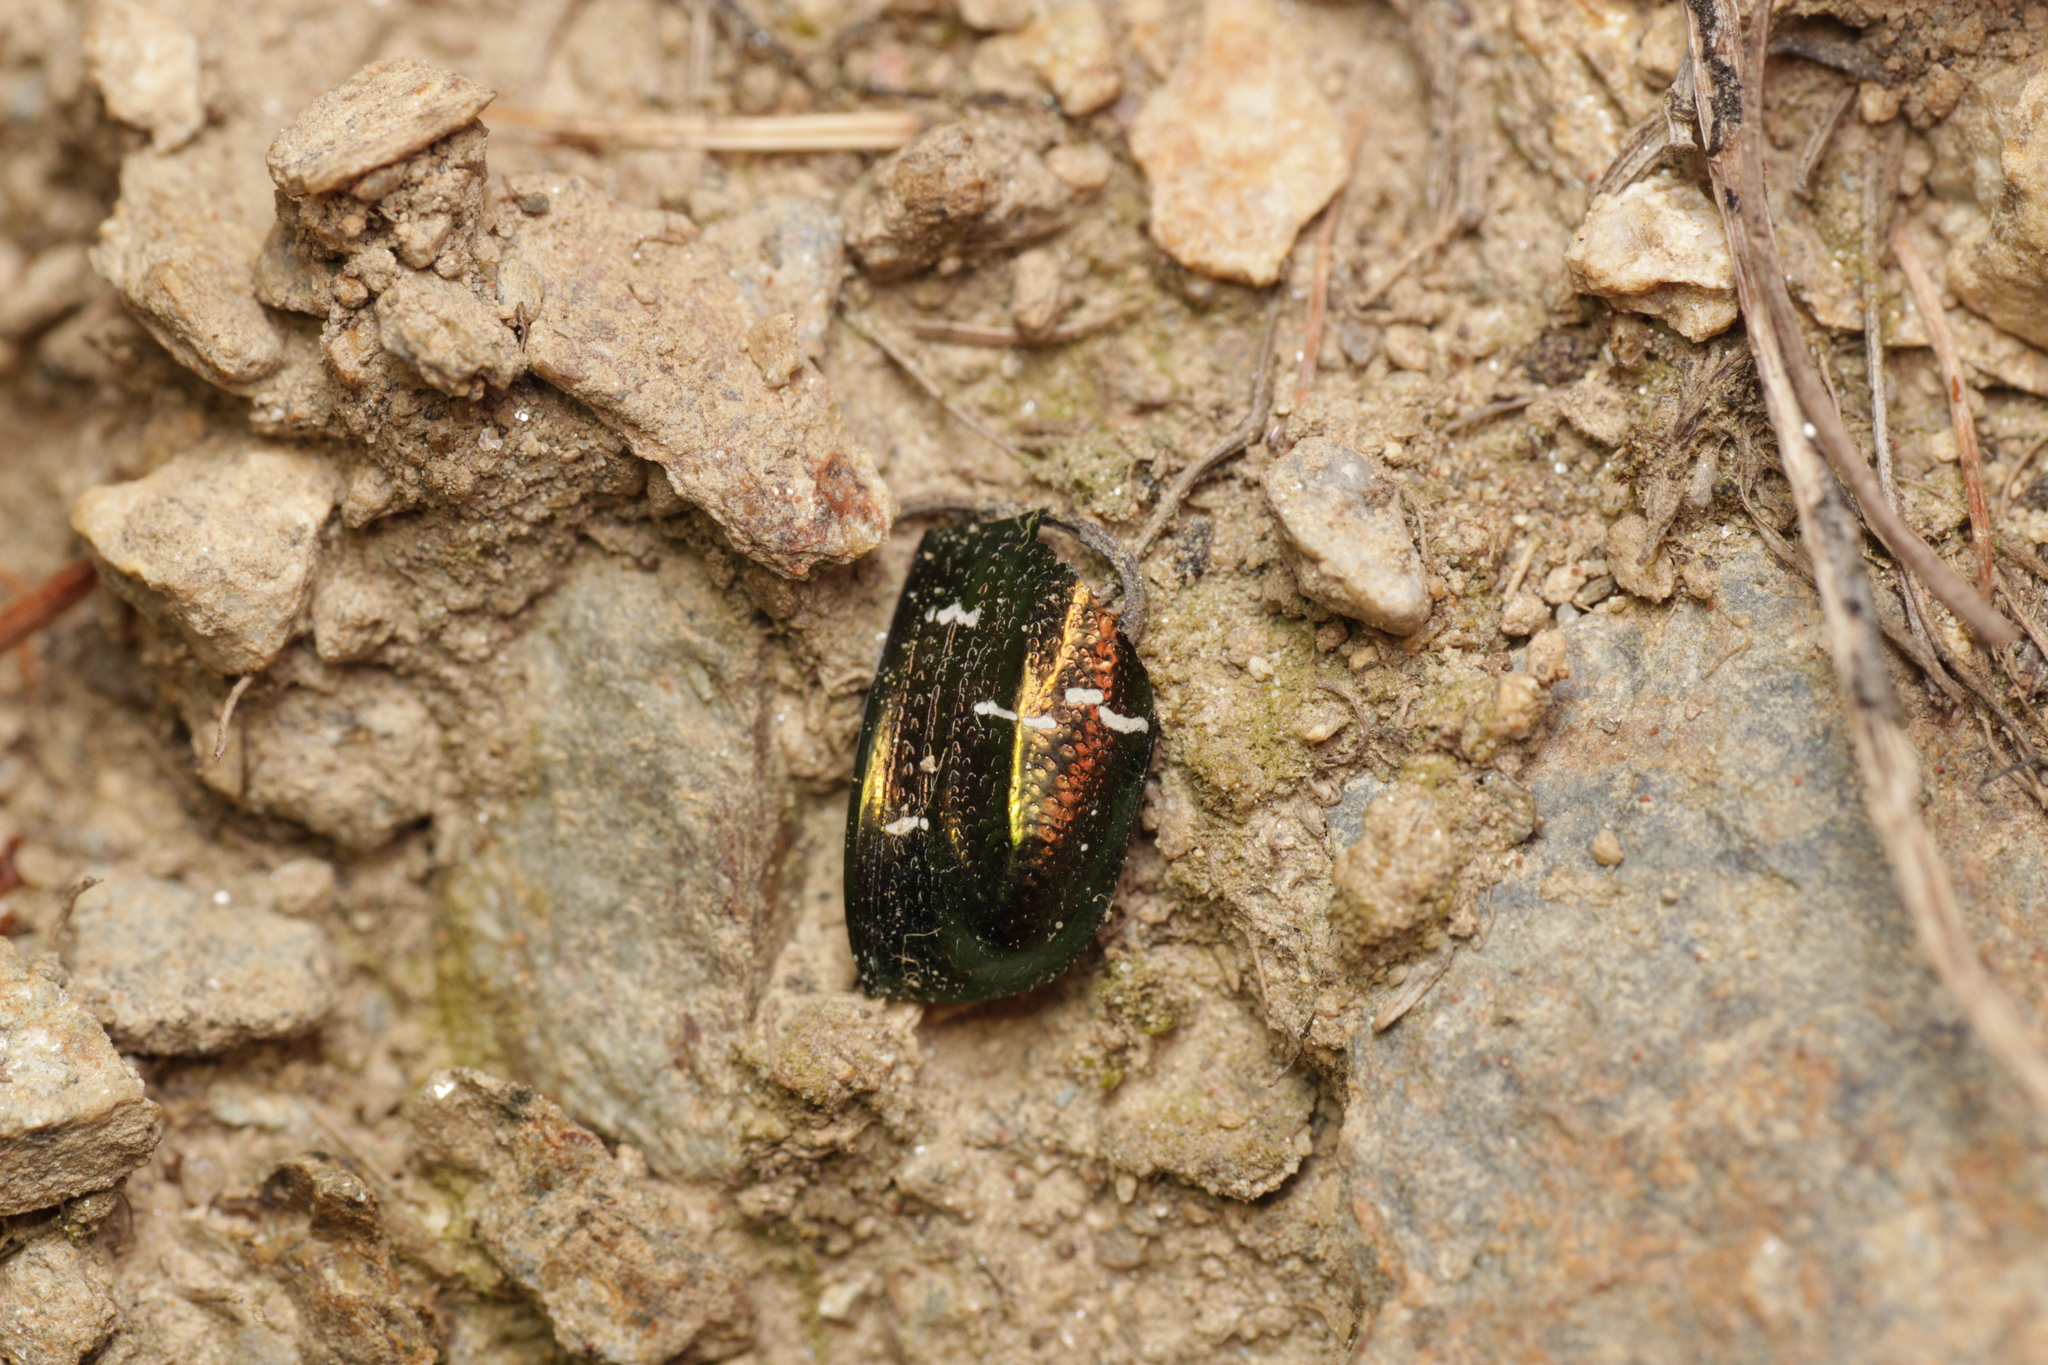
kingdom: Animalia
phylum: Arthropoda
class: Insecta
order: Coleoptera
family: Scarabaeidae
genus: Cetonia
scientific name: Cetonia aurata
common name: Rose chafer
